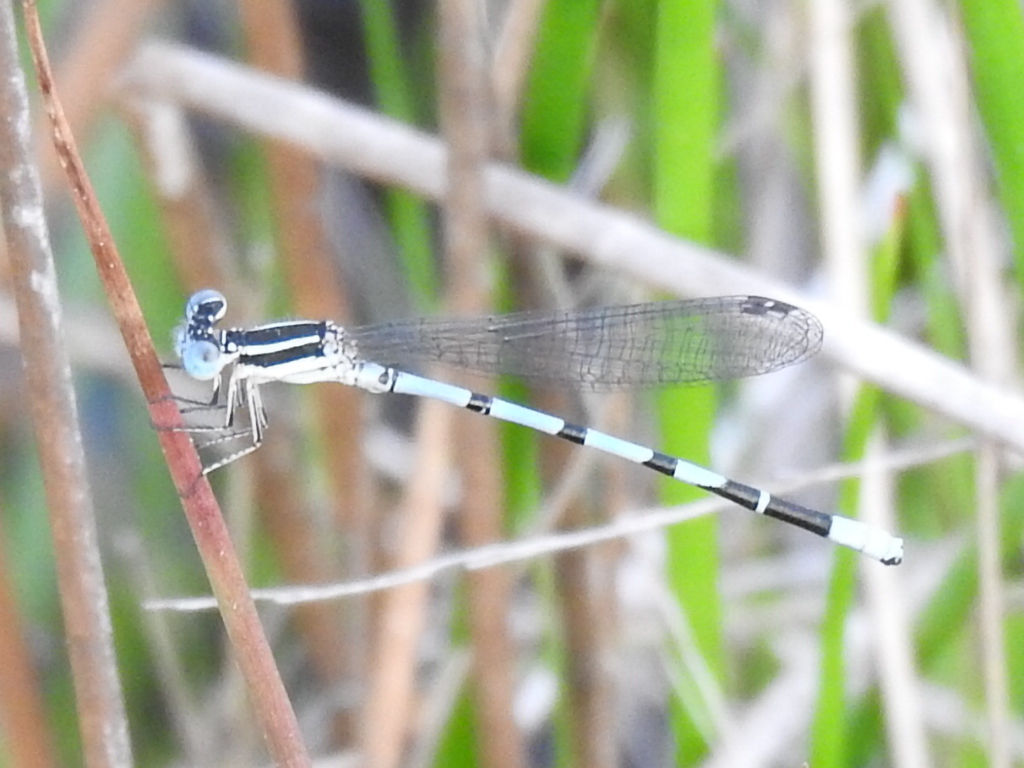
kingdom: Animalia
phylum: Arthropoda
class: Insecta
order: Odonata
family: Coenagrionidae
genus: Argia
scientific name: Argia bipunctulata
